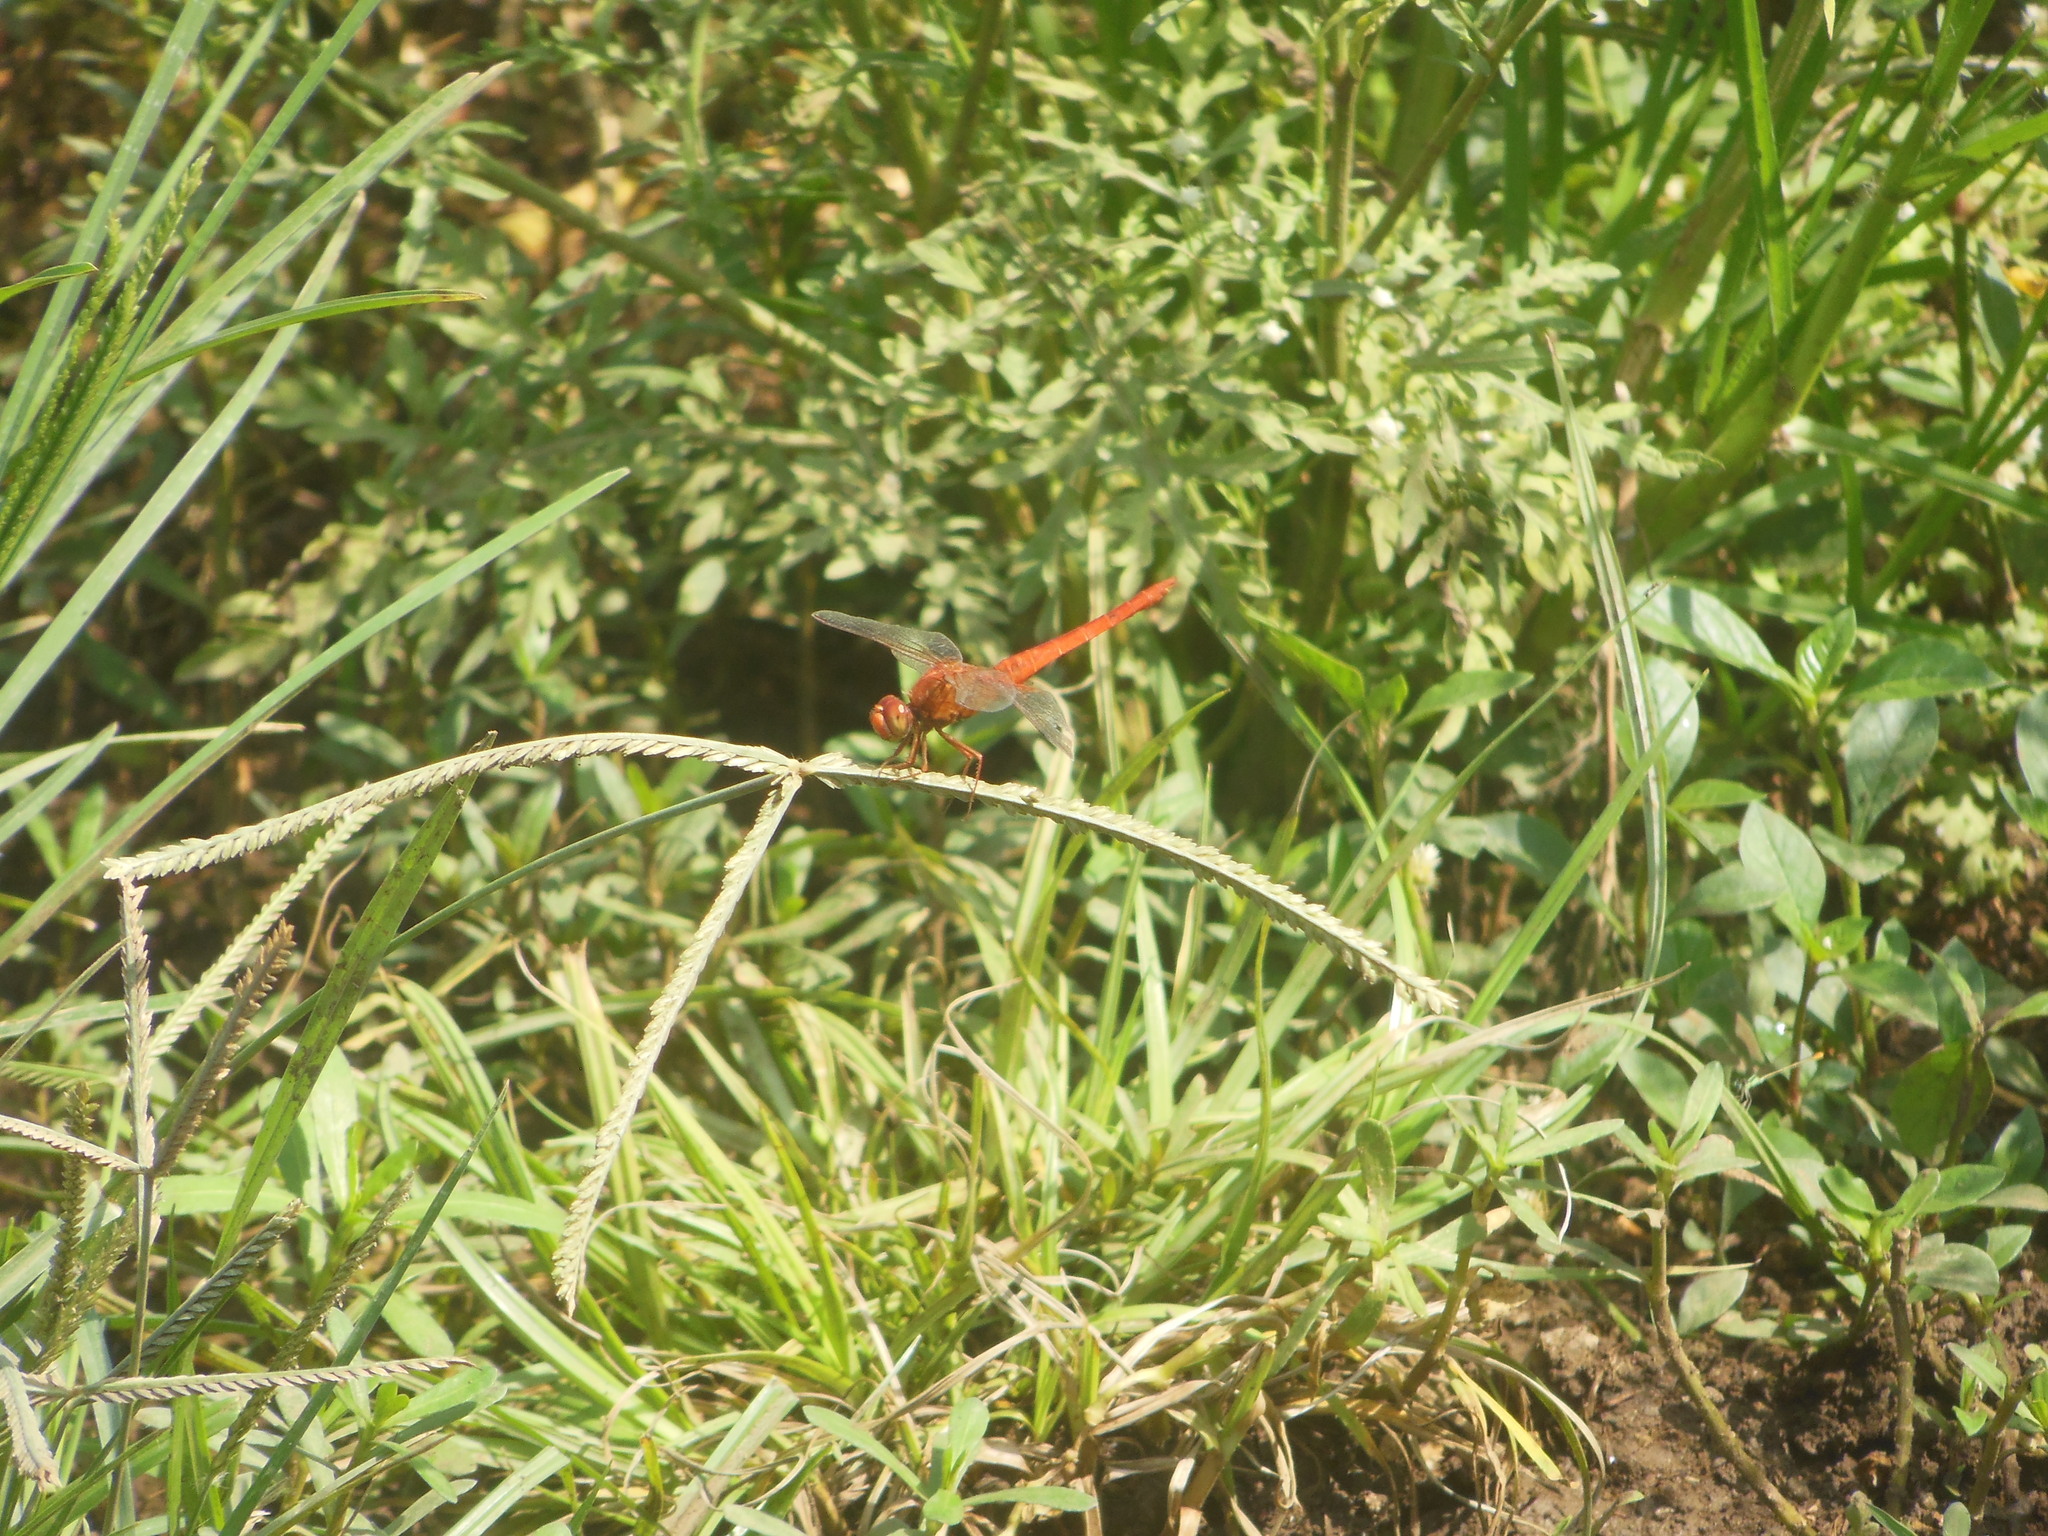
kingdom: Animalia
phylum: Arthropoda
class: Insecta
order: Odonata
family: Libellulidae
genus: Crocothemis
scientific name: Crocothemis servilia
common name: Scarlet skimmer
